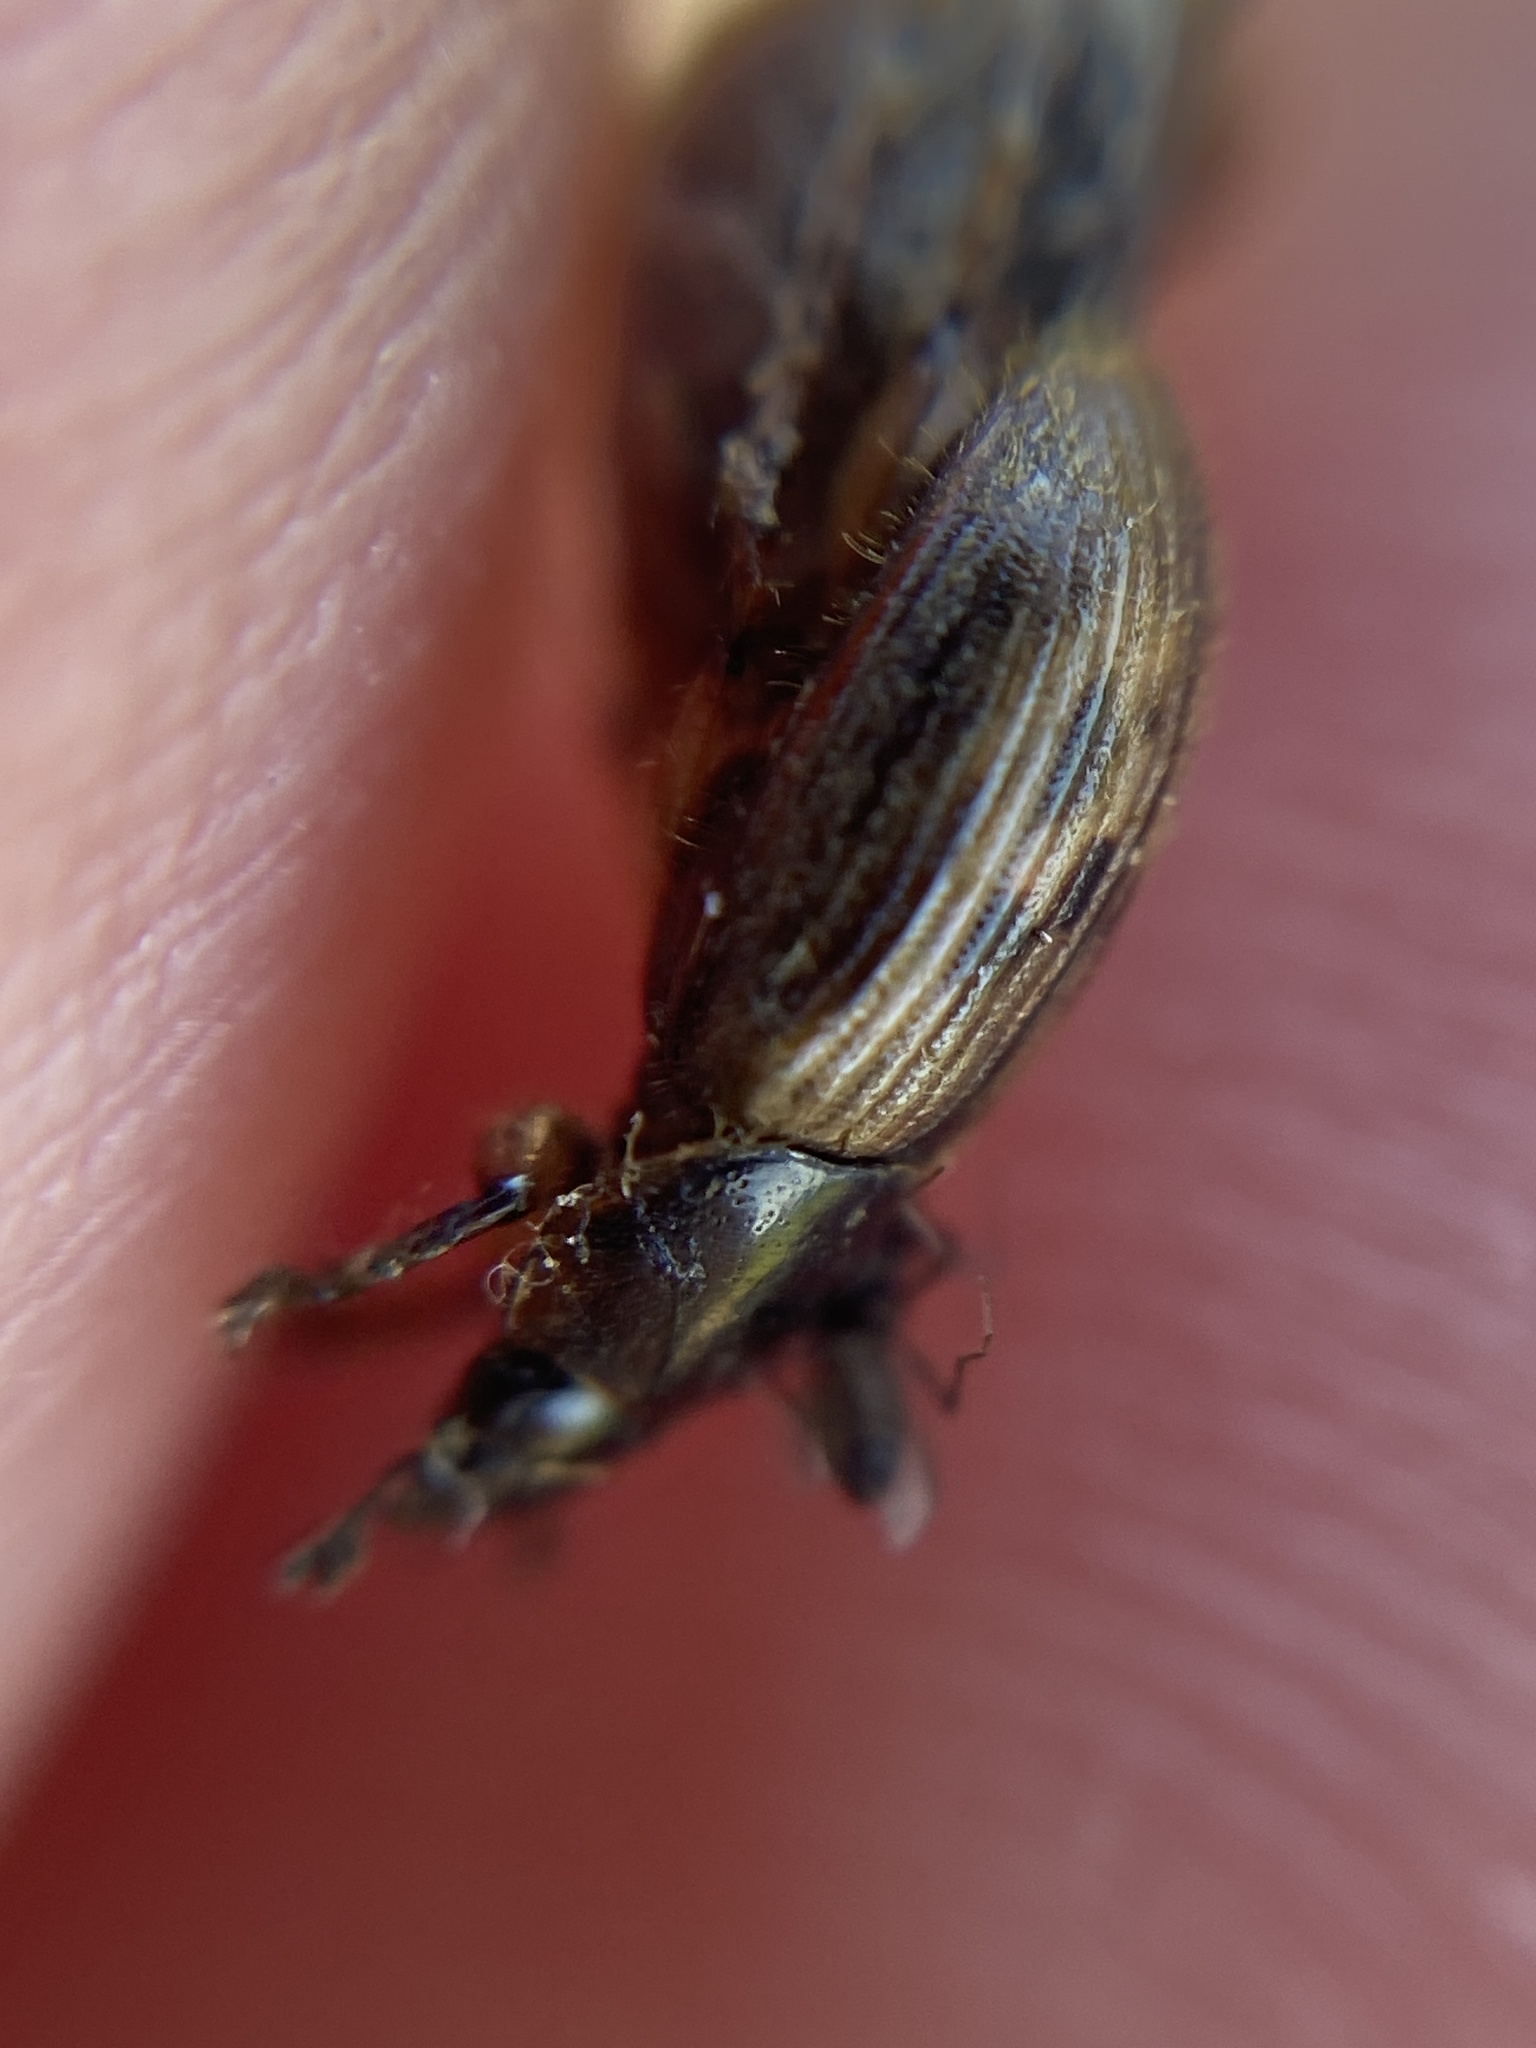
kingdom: Animalia
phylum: Arthropoda
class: Insecta
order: Coleoptera
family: Scarabaeidae
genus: Nimbus
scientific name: Nimbus contaminatus
